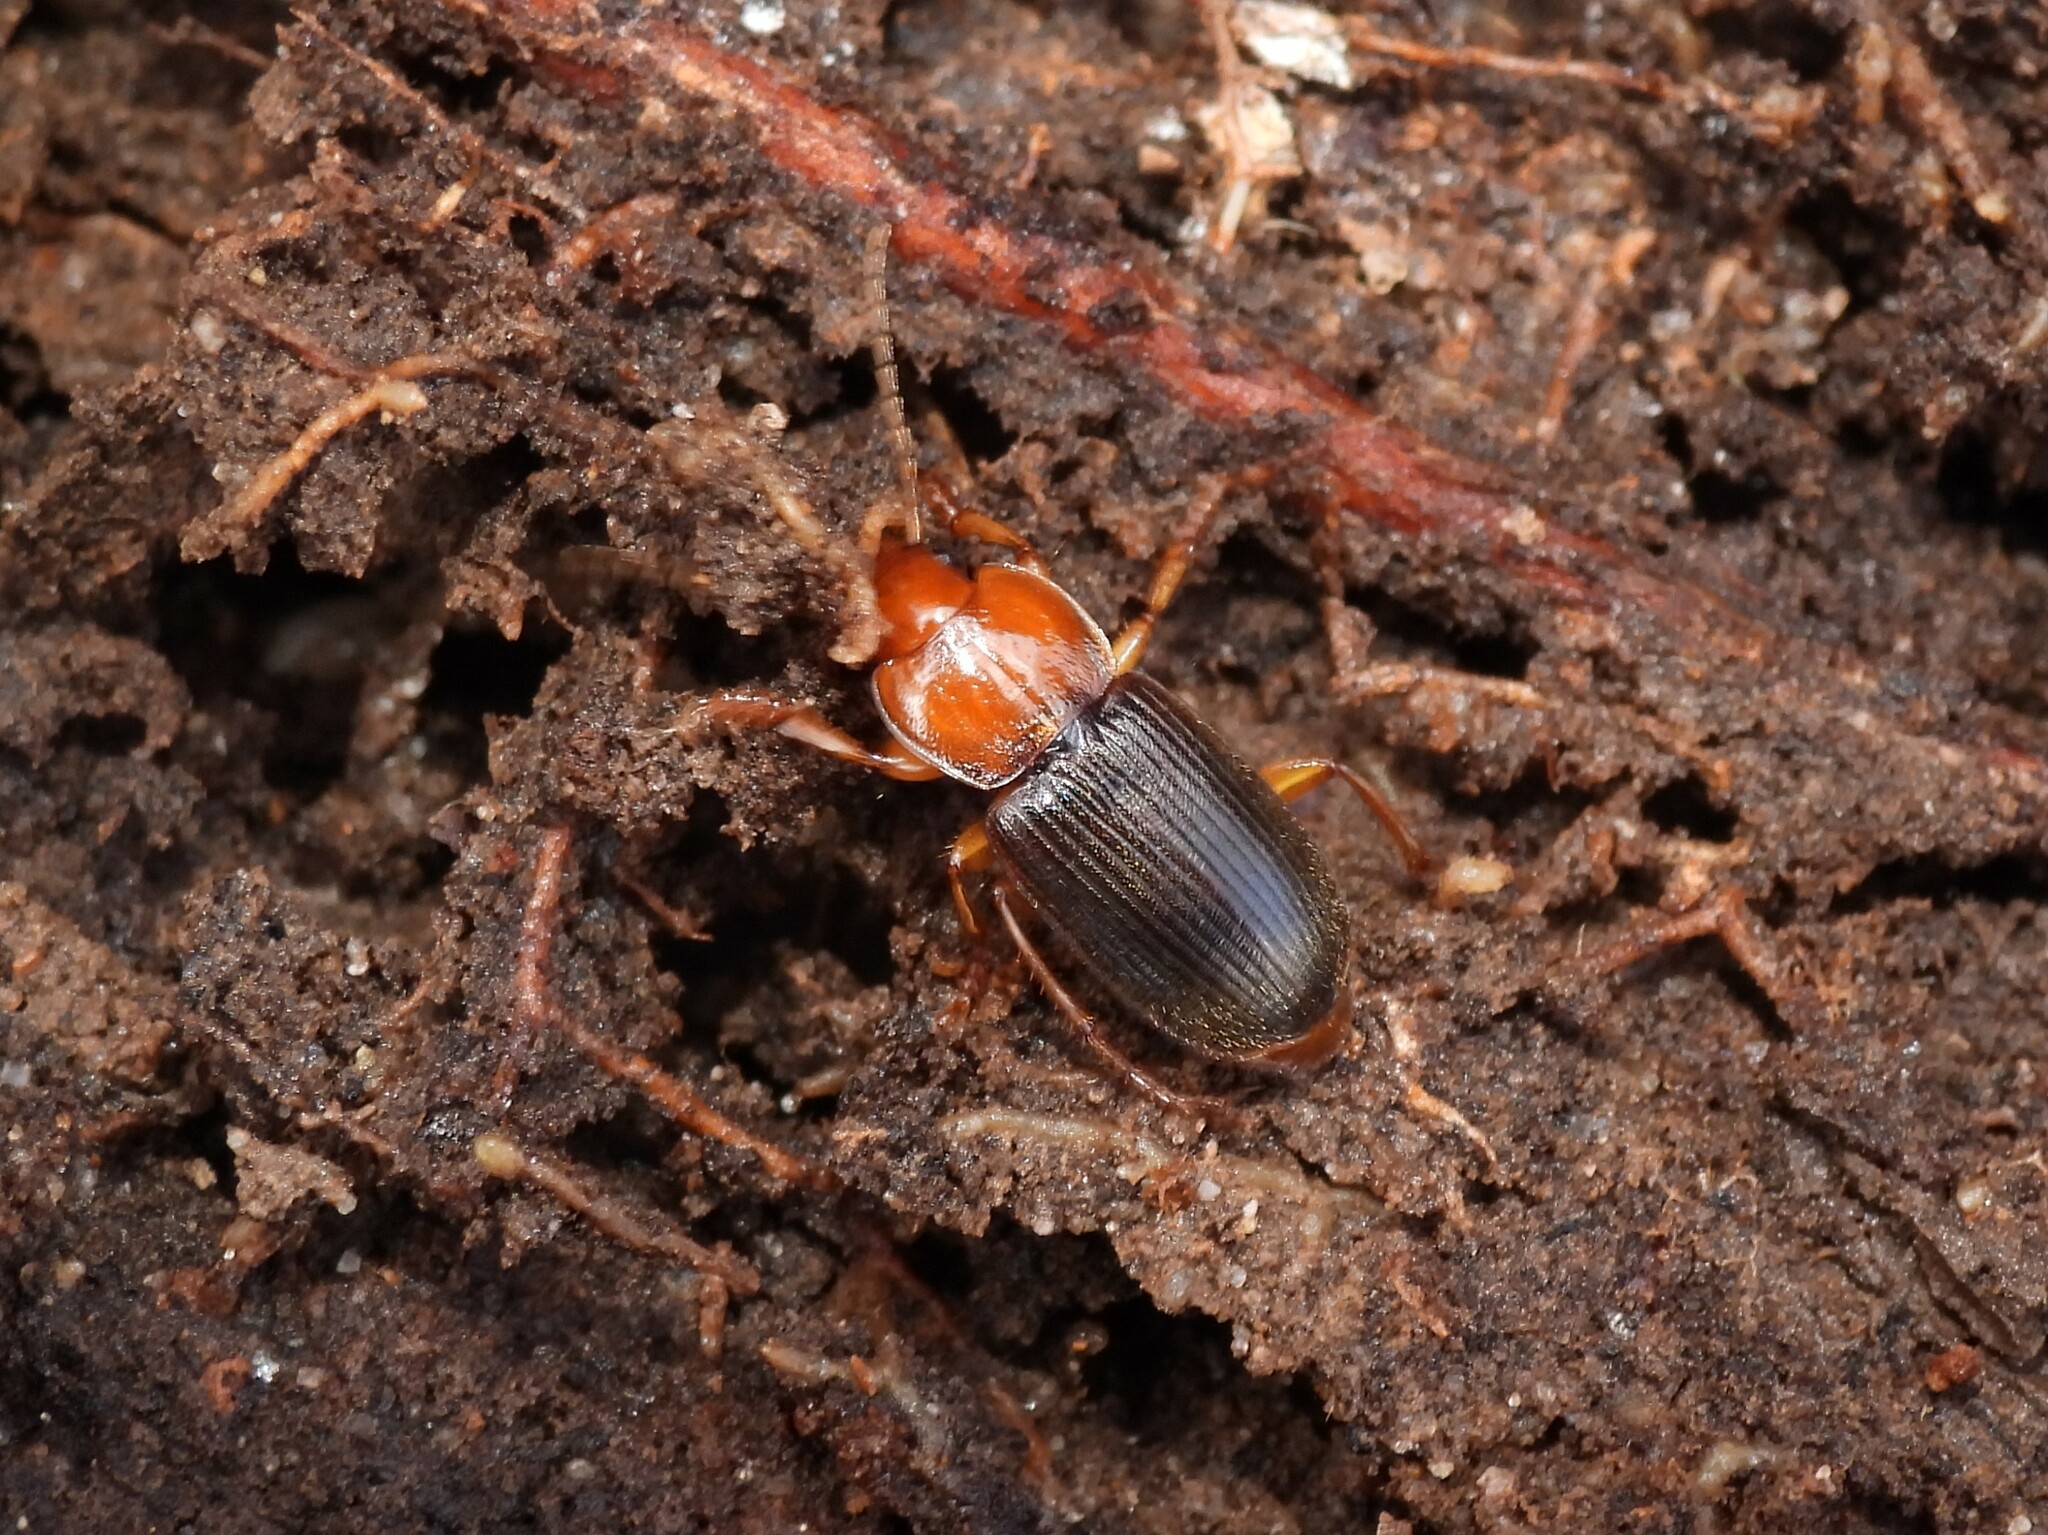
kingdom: Animalia
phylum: Arthropoda
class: Insecta
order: Coleoptera
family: Carabidae
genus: Amphasia
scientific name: Amphasia interstitialis
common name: Red-headed ground beetle
